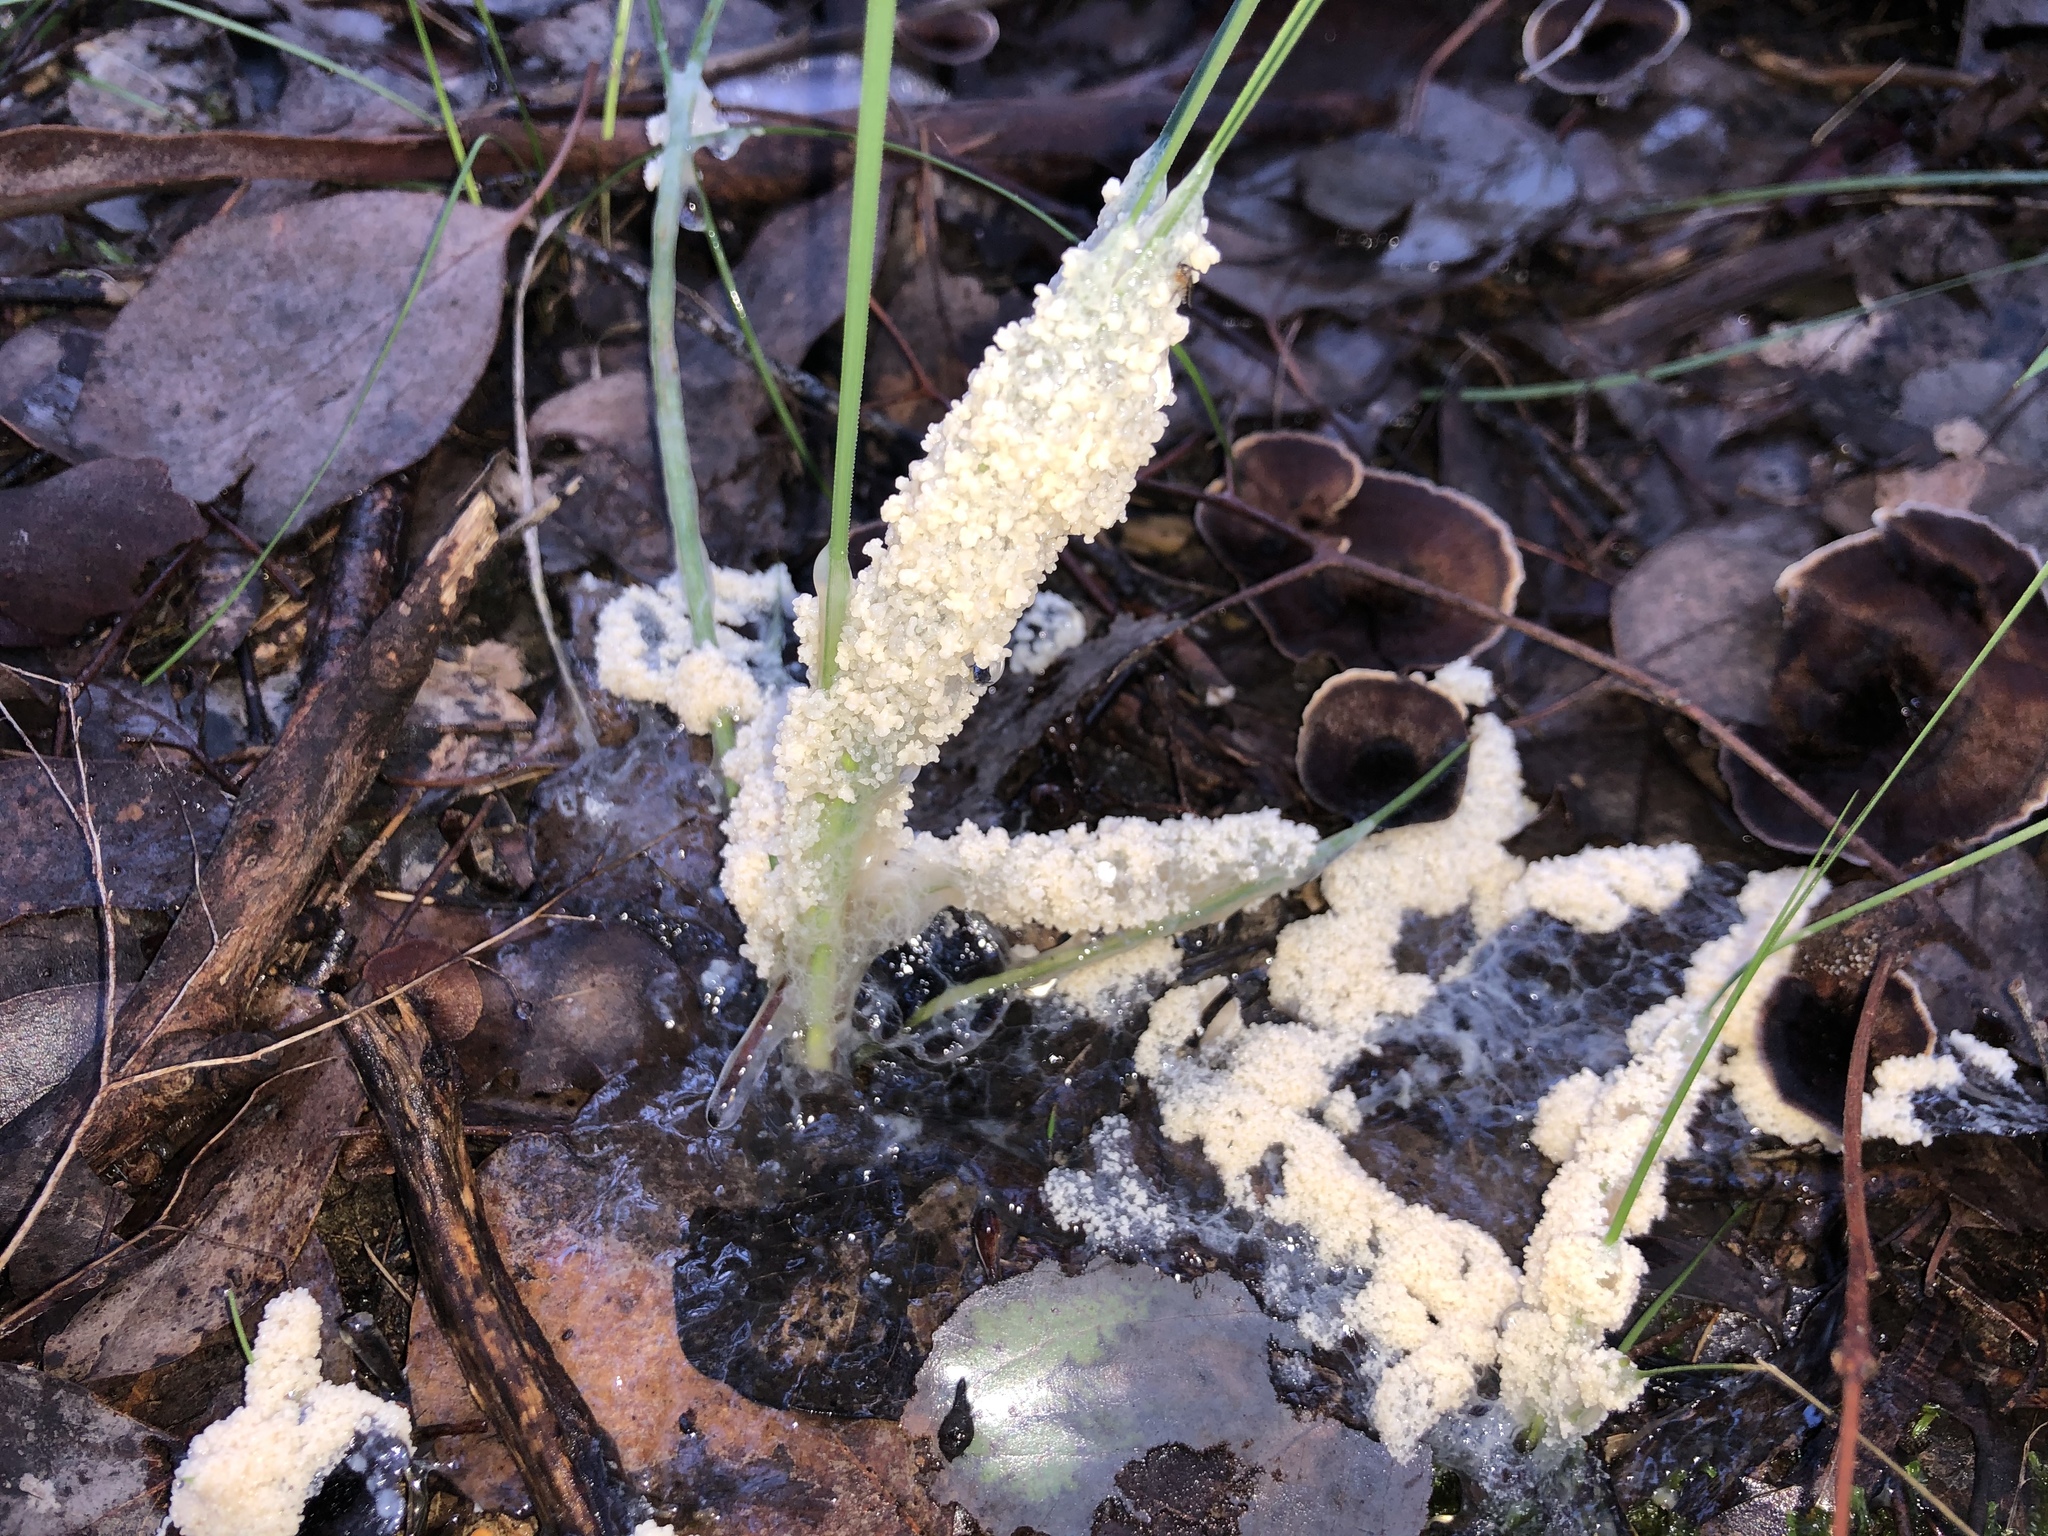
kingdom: Protozoa
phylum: Mycetozoa
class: Myxomycetes
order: Physarales
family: Physaraceae
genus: Didymium
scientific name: Didymium
